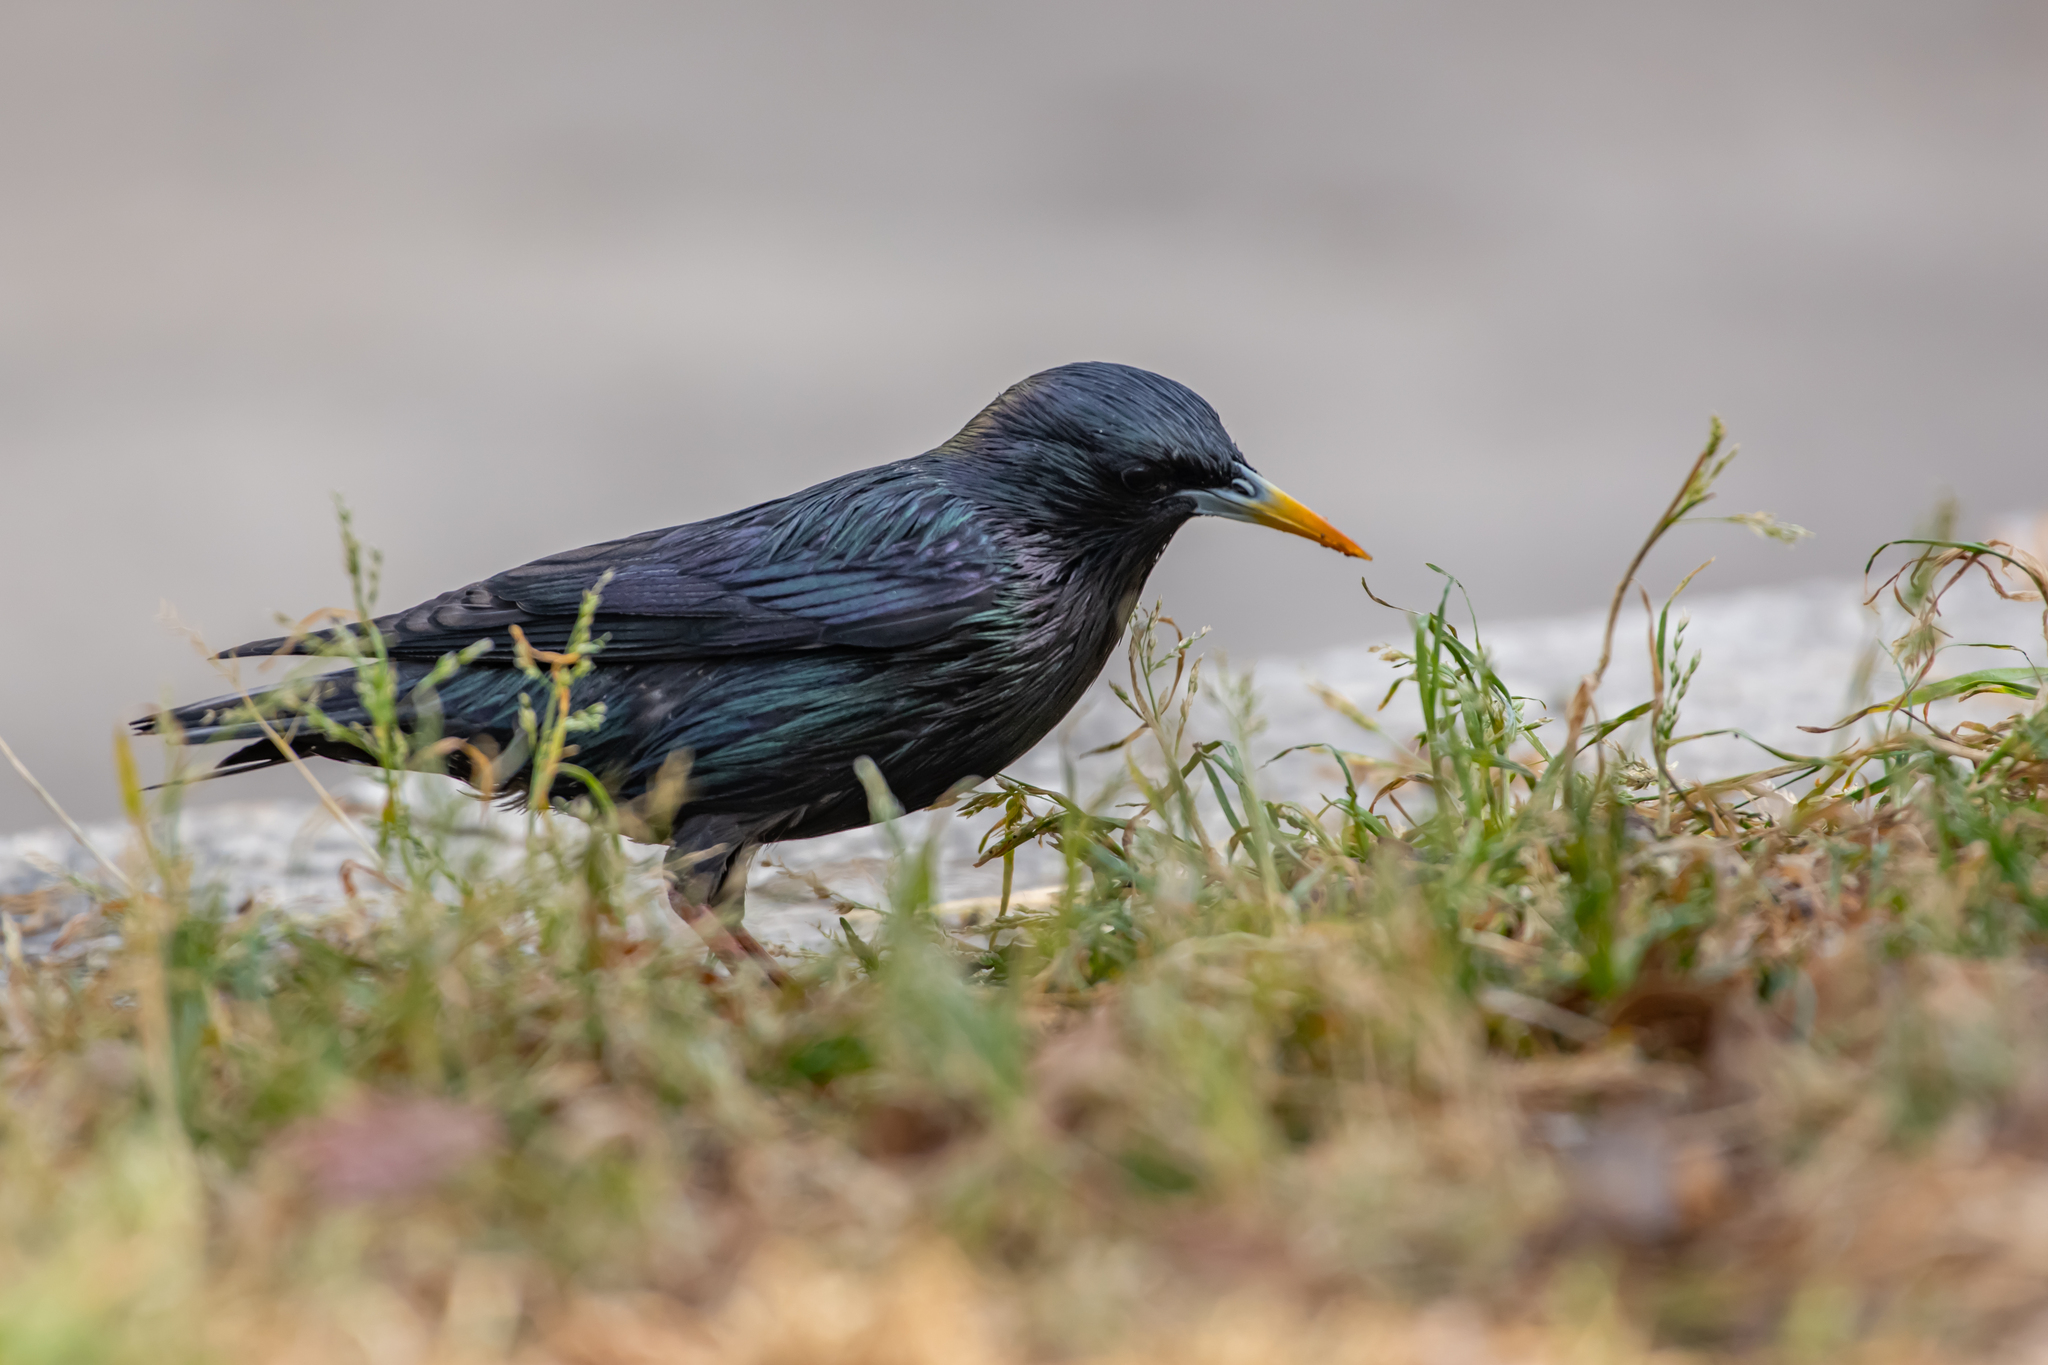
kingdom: Animalia
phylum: Chordata
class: Aves
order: Passeriformes
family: Sturnidae
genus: Sturnus
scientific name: Sturnus unicolor
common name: Spotless starling
